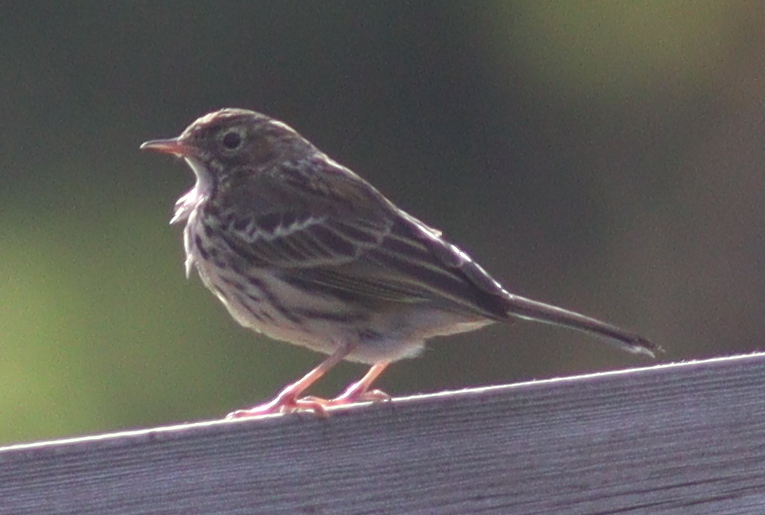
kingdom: Animalia
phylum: Chordata
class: Aves
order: Passeriformes
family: Motacillidae
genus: Anthus
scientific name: Anthus pratensis
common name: Meadow pipit
